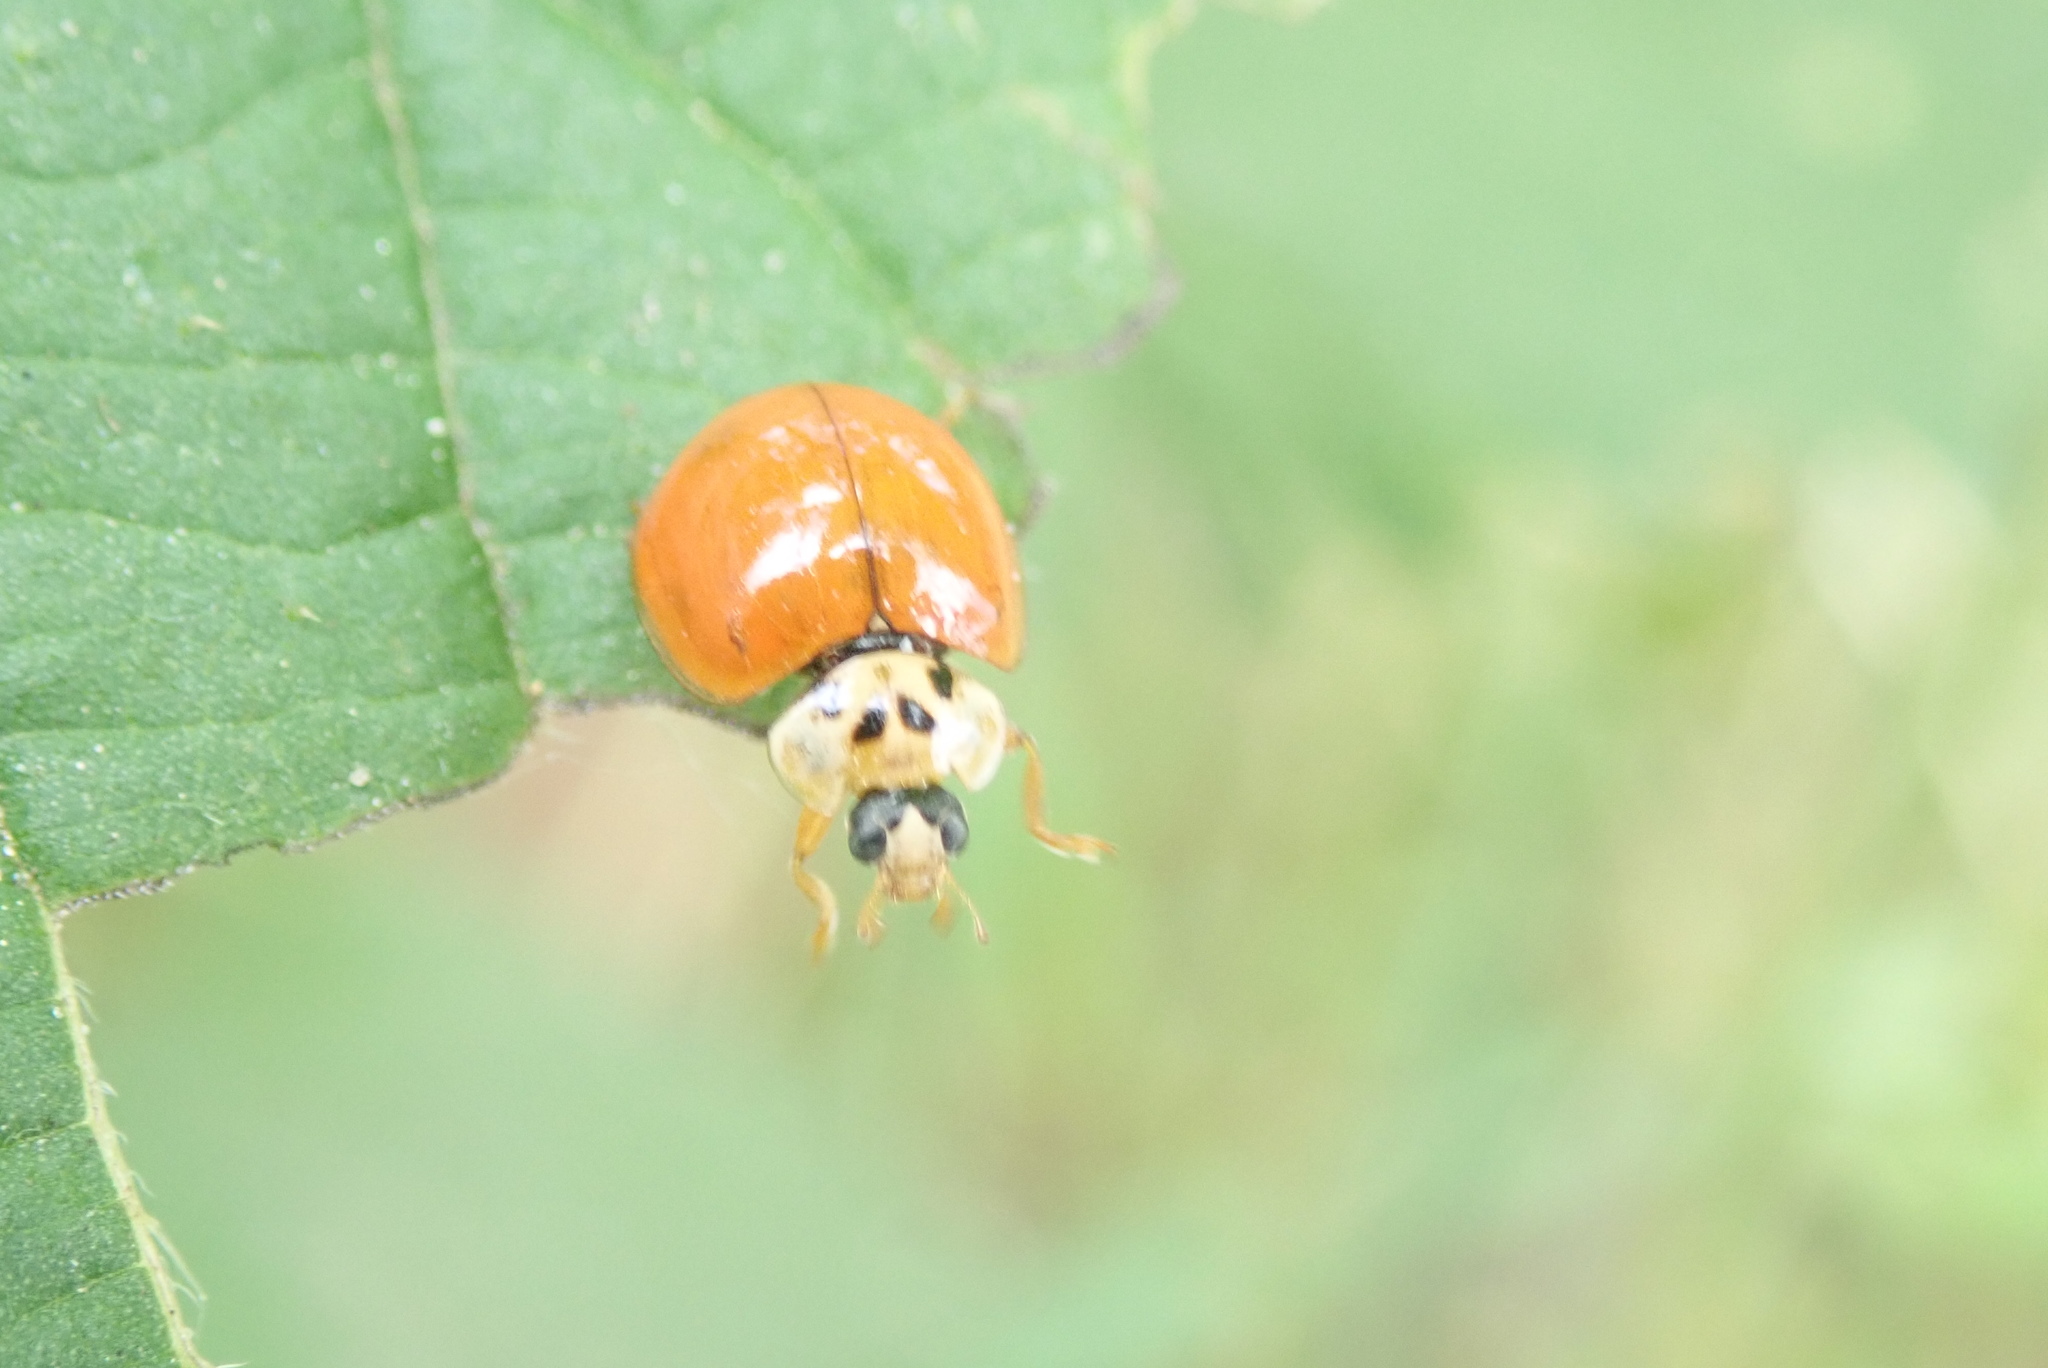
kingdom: Animalia
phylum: Arthropoda
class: Insecta
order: Coleoptera
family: Coccinellidae
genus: Harmonia
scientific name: Harmonia axyridis
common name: Harlequin ladybird
